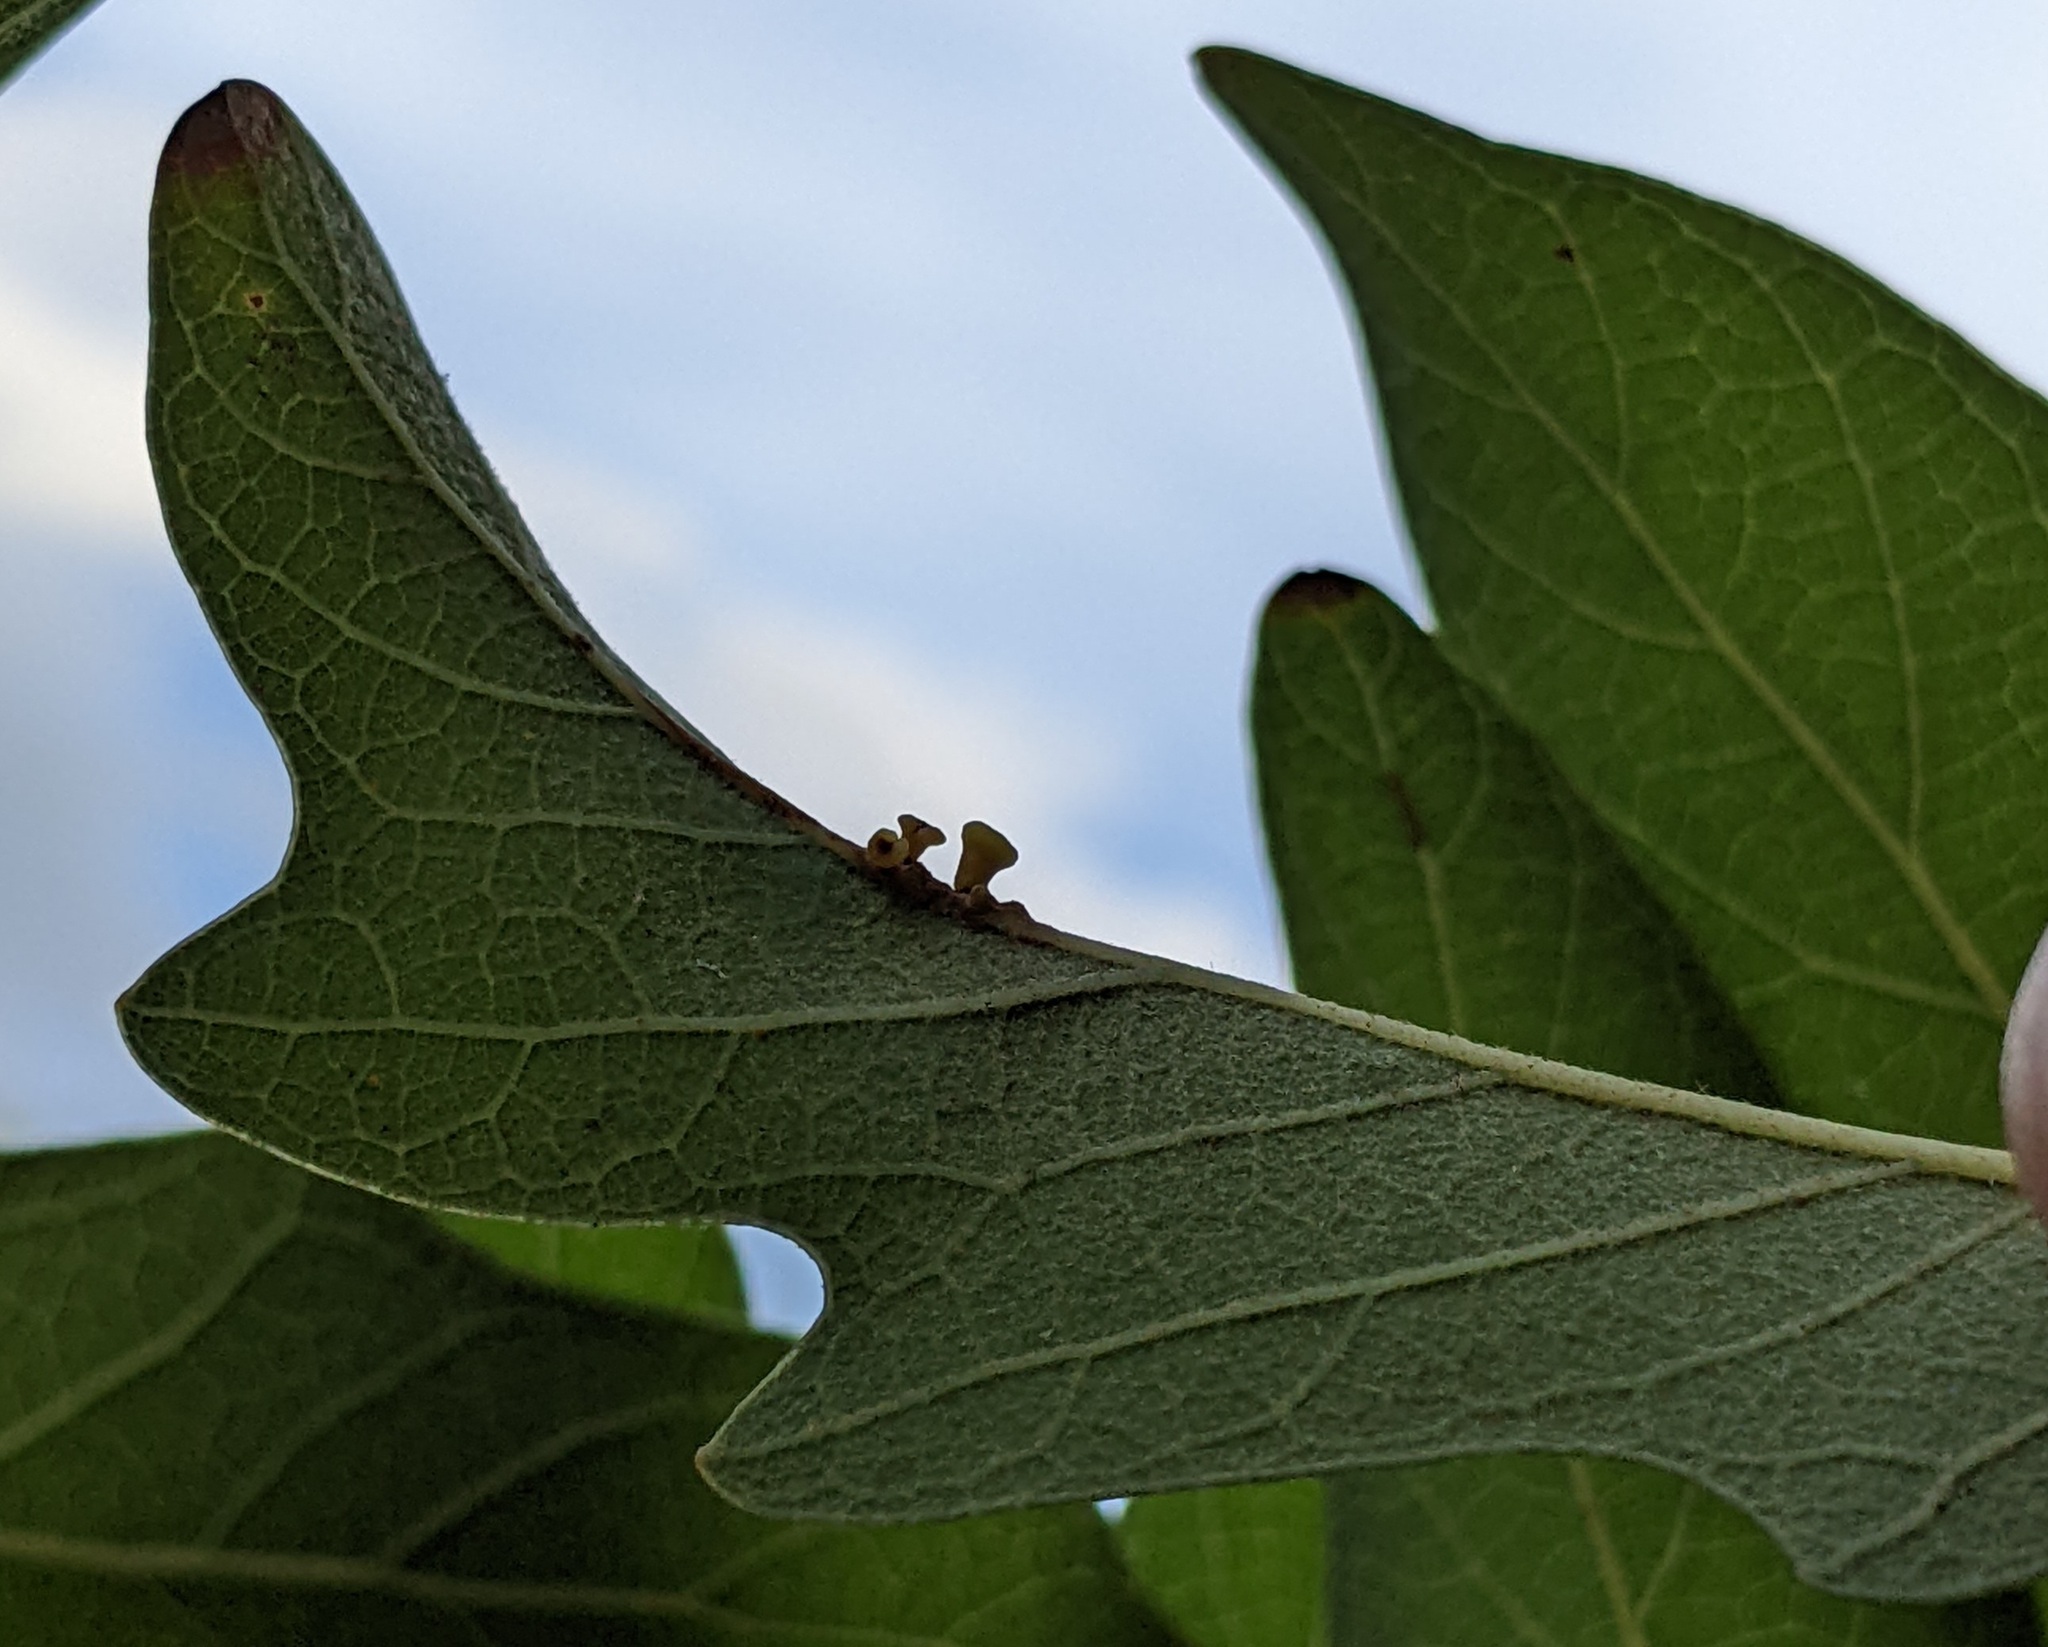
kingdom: Animalia
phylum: Arthropoda
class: Insecta
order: Hymenoptera
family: Cynipidae
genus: Andricus
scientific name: Andricus lustrans
